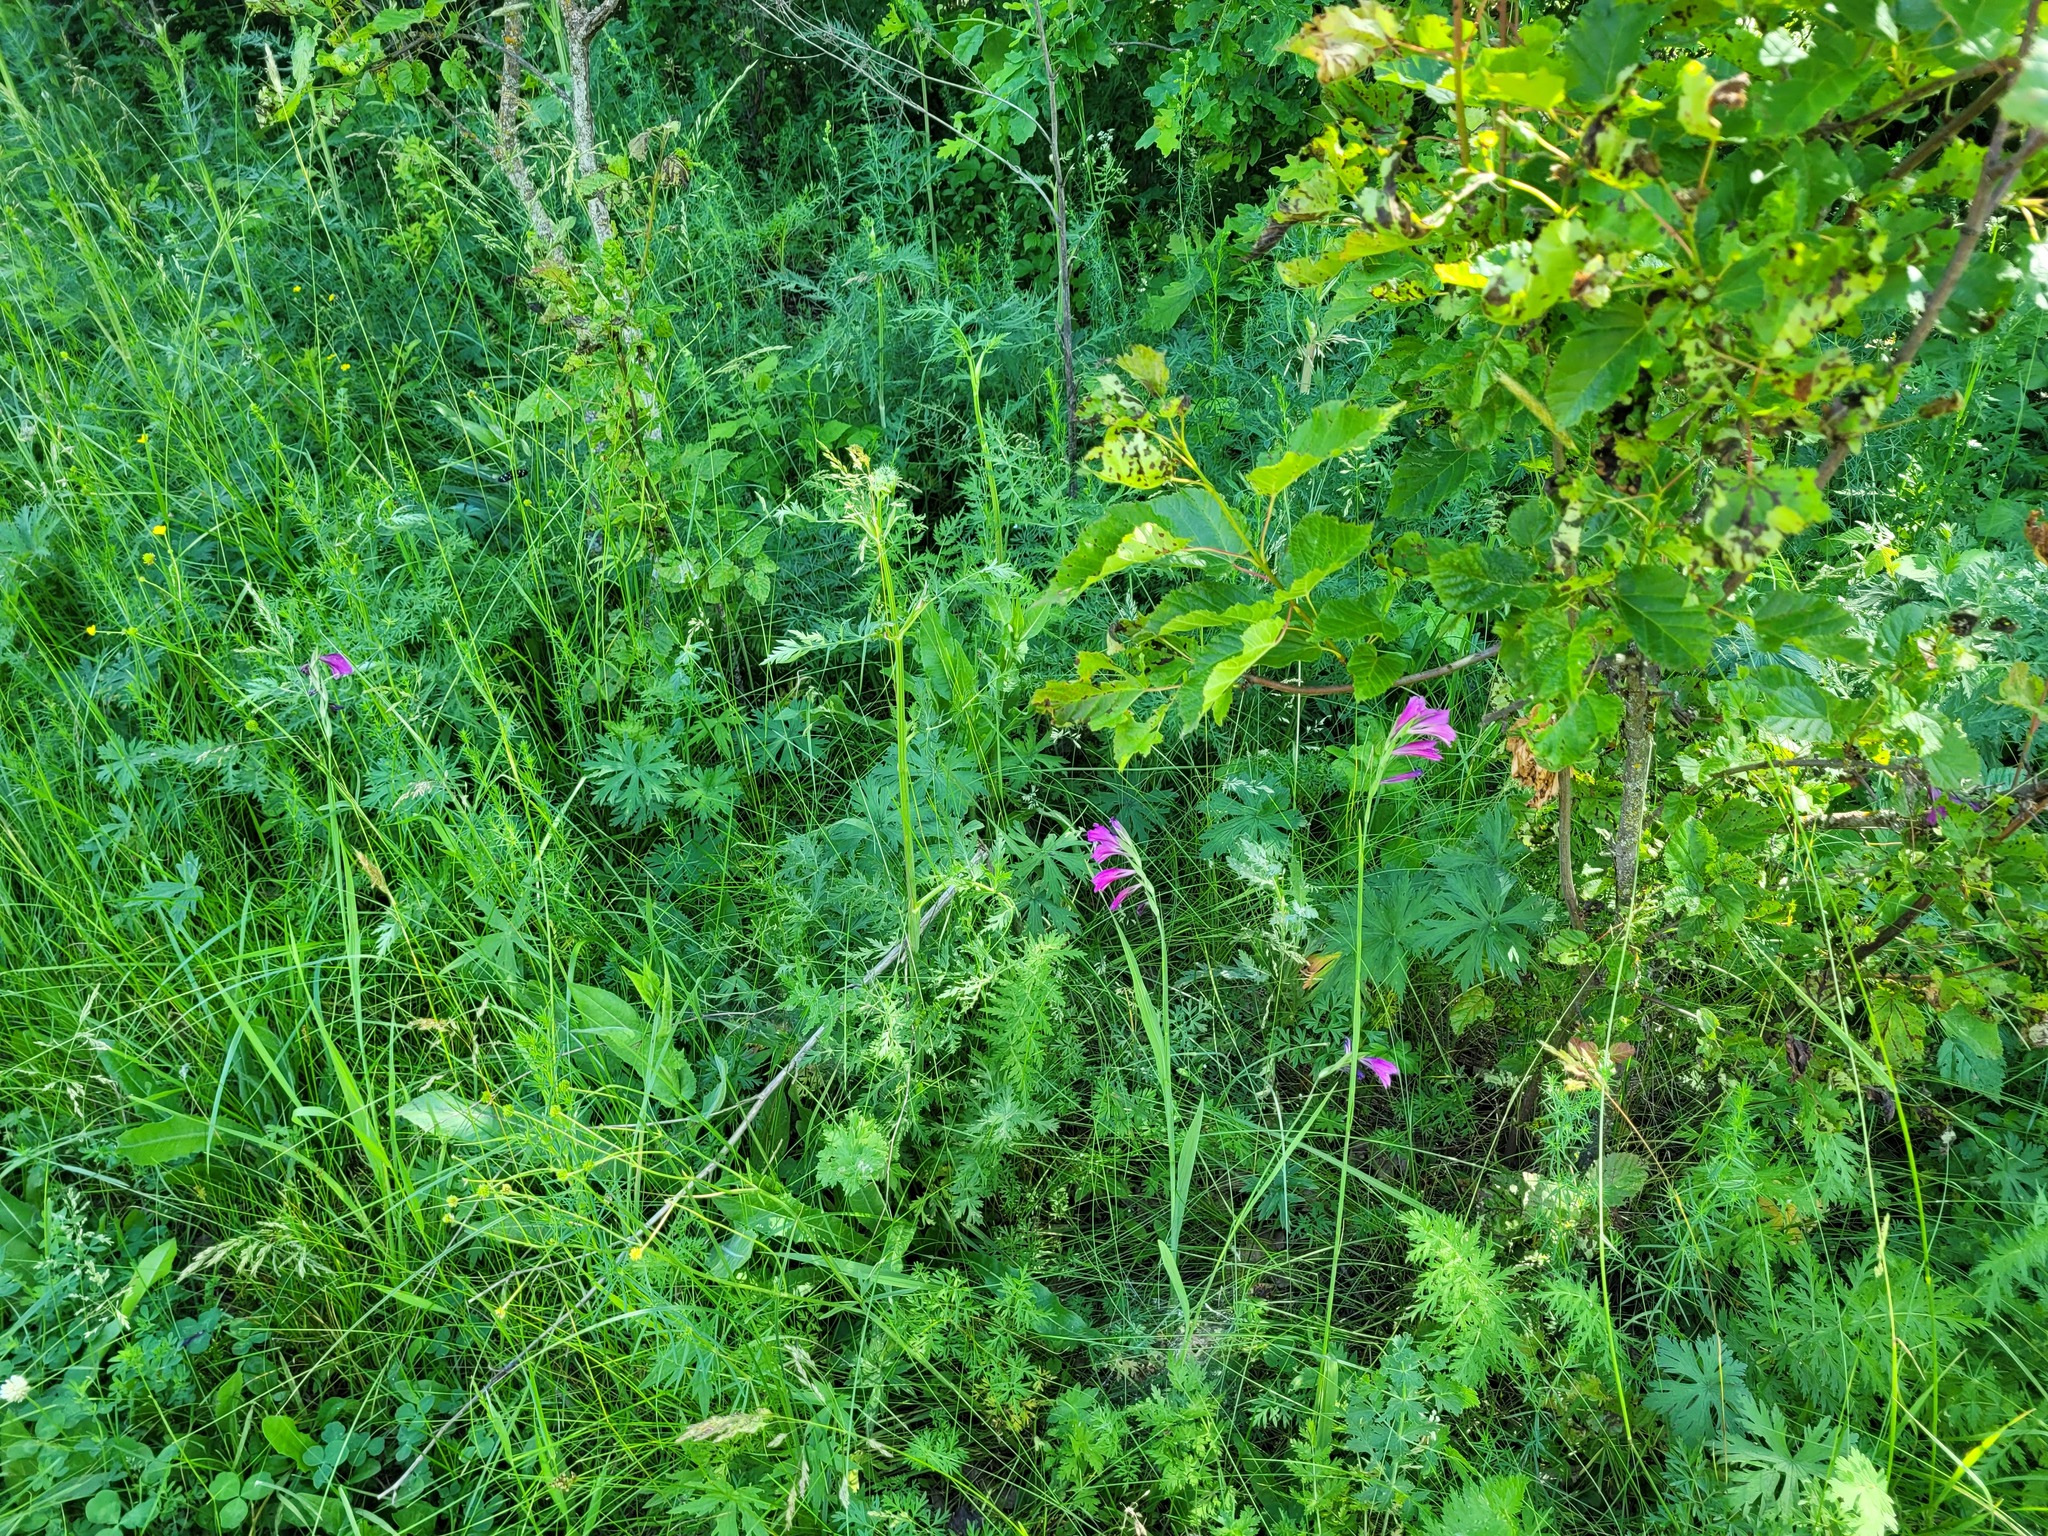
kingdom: Plantae
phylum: Tracheophyta
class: Magnoliopsida
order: Apiales
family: Apiaceae
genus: Seseli
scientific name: Seseli libanotis
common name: Mooncarrot
